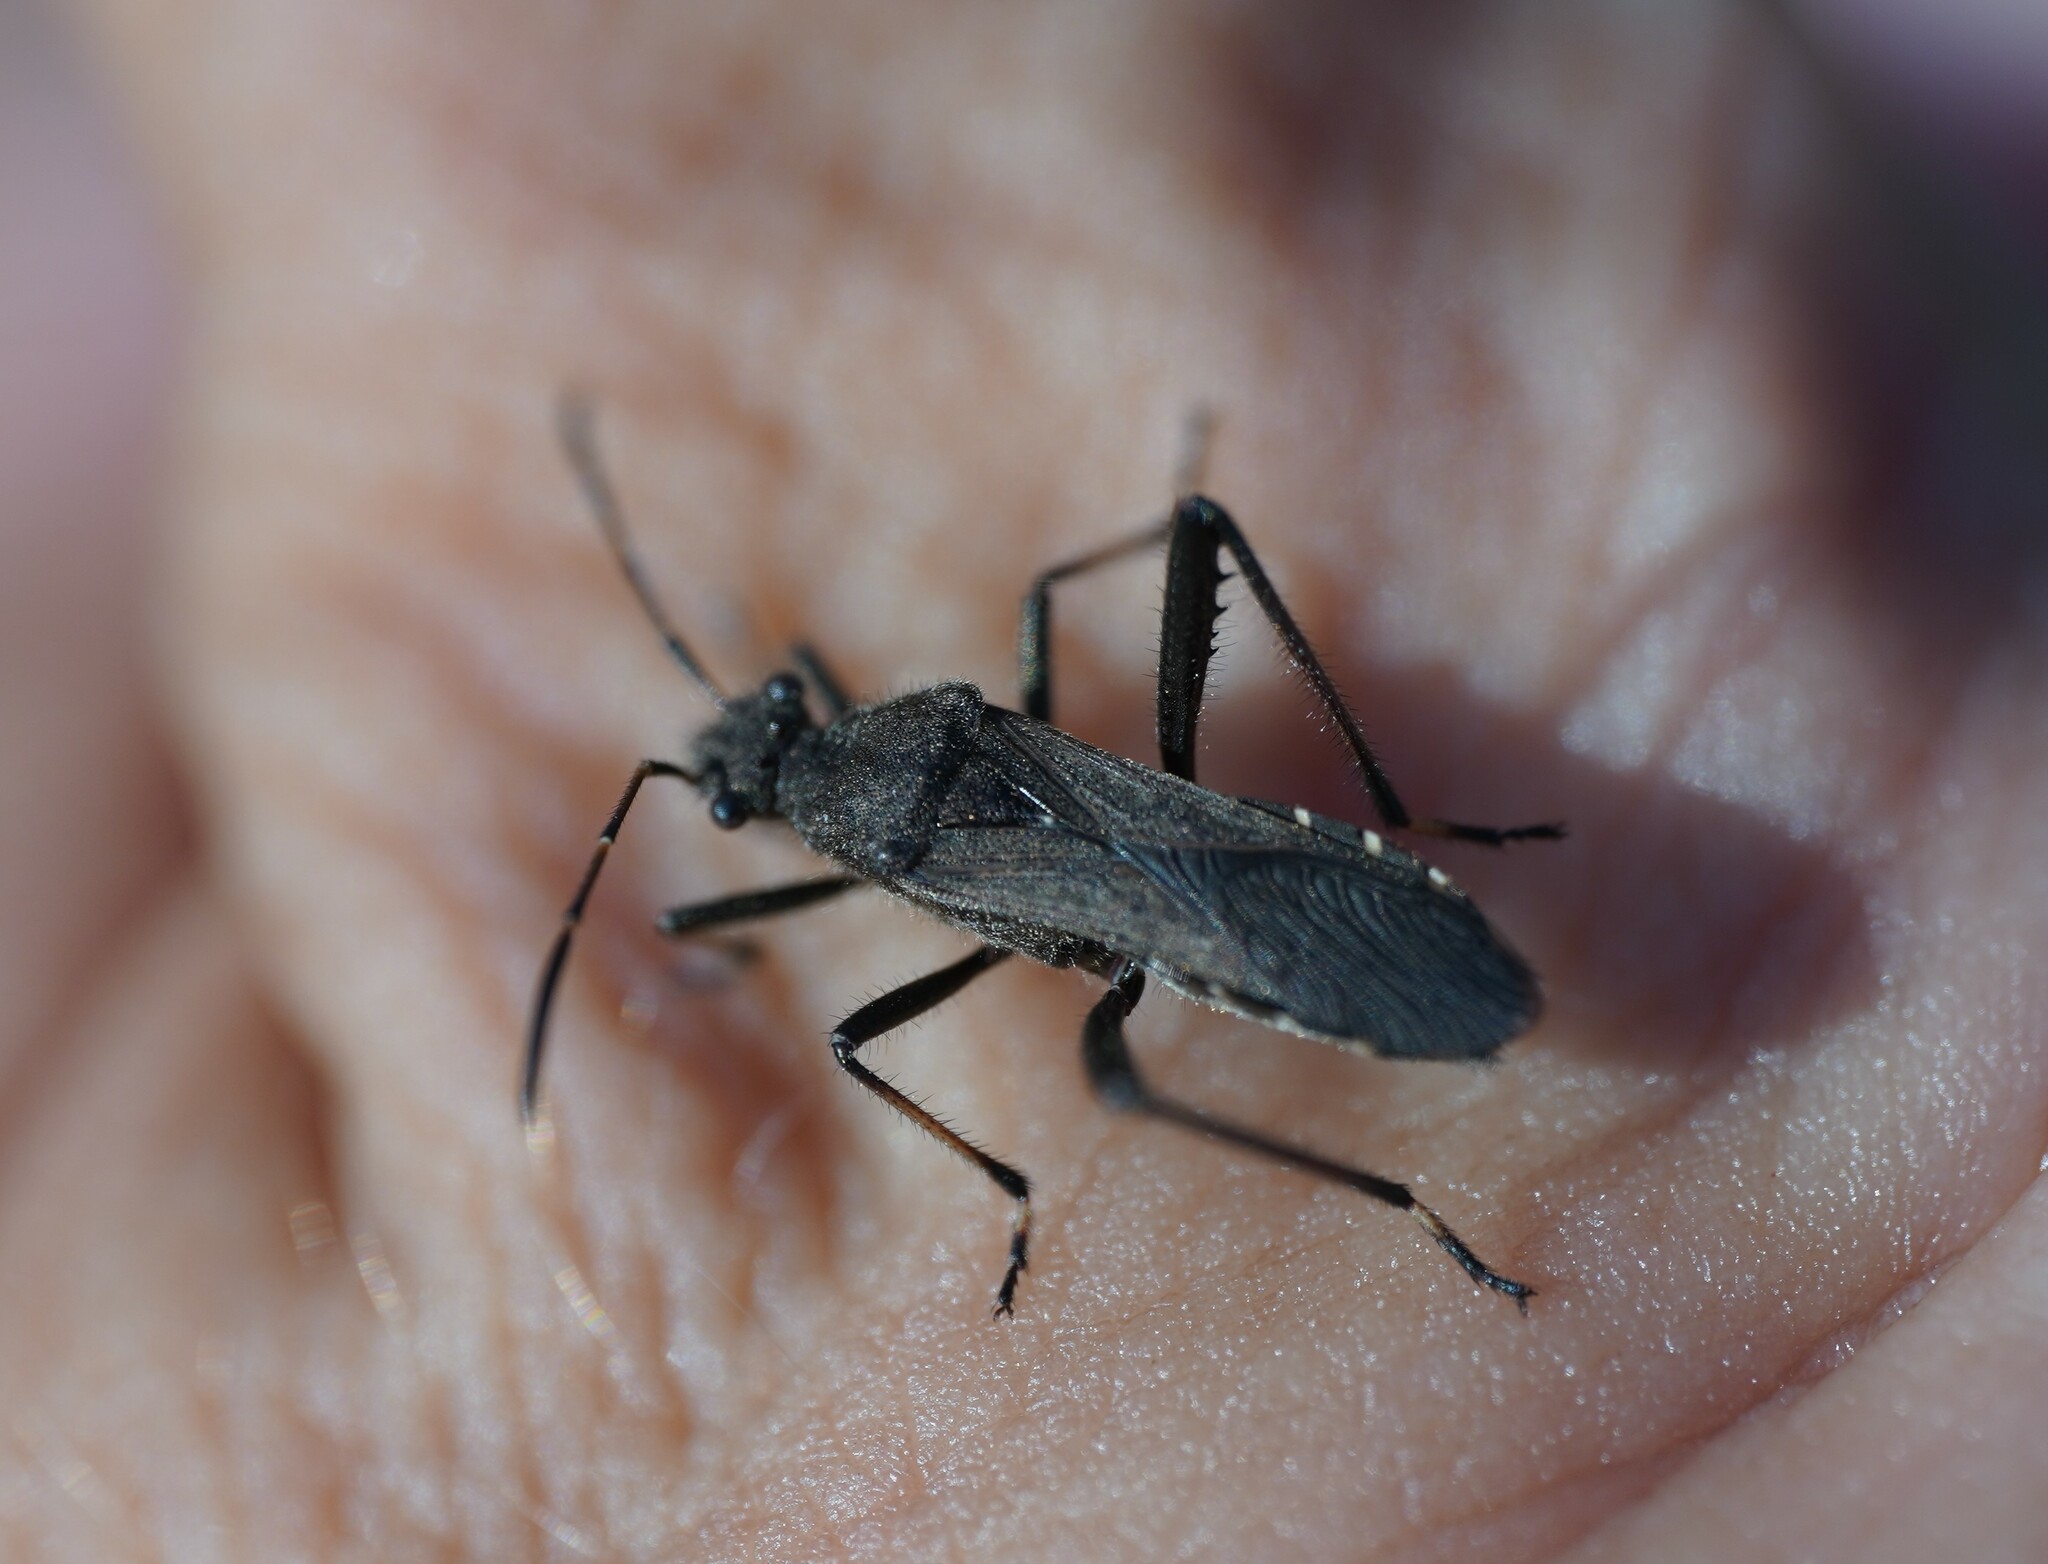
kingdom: Animalia
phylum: Arthropoda
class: Insecta
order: Hemiptera
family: Alydidae
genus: Alydus
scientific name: Alydus calcaratus
